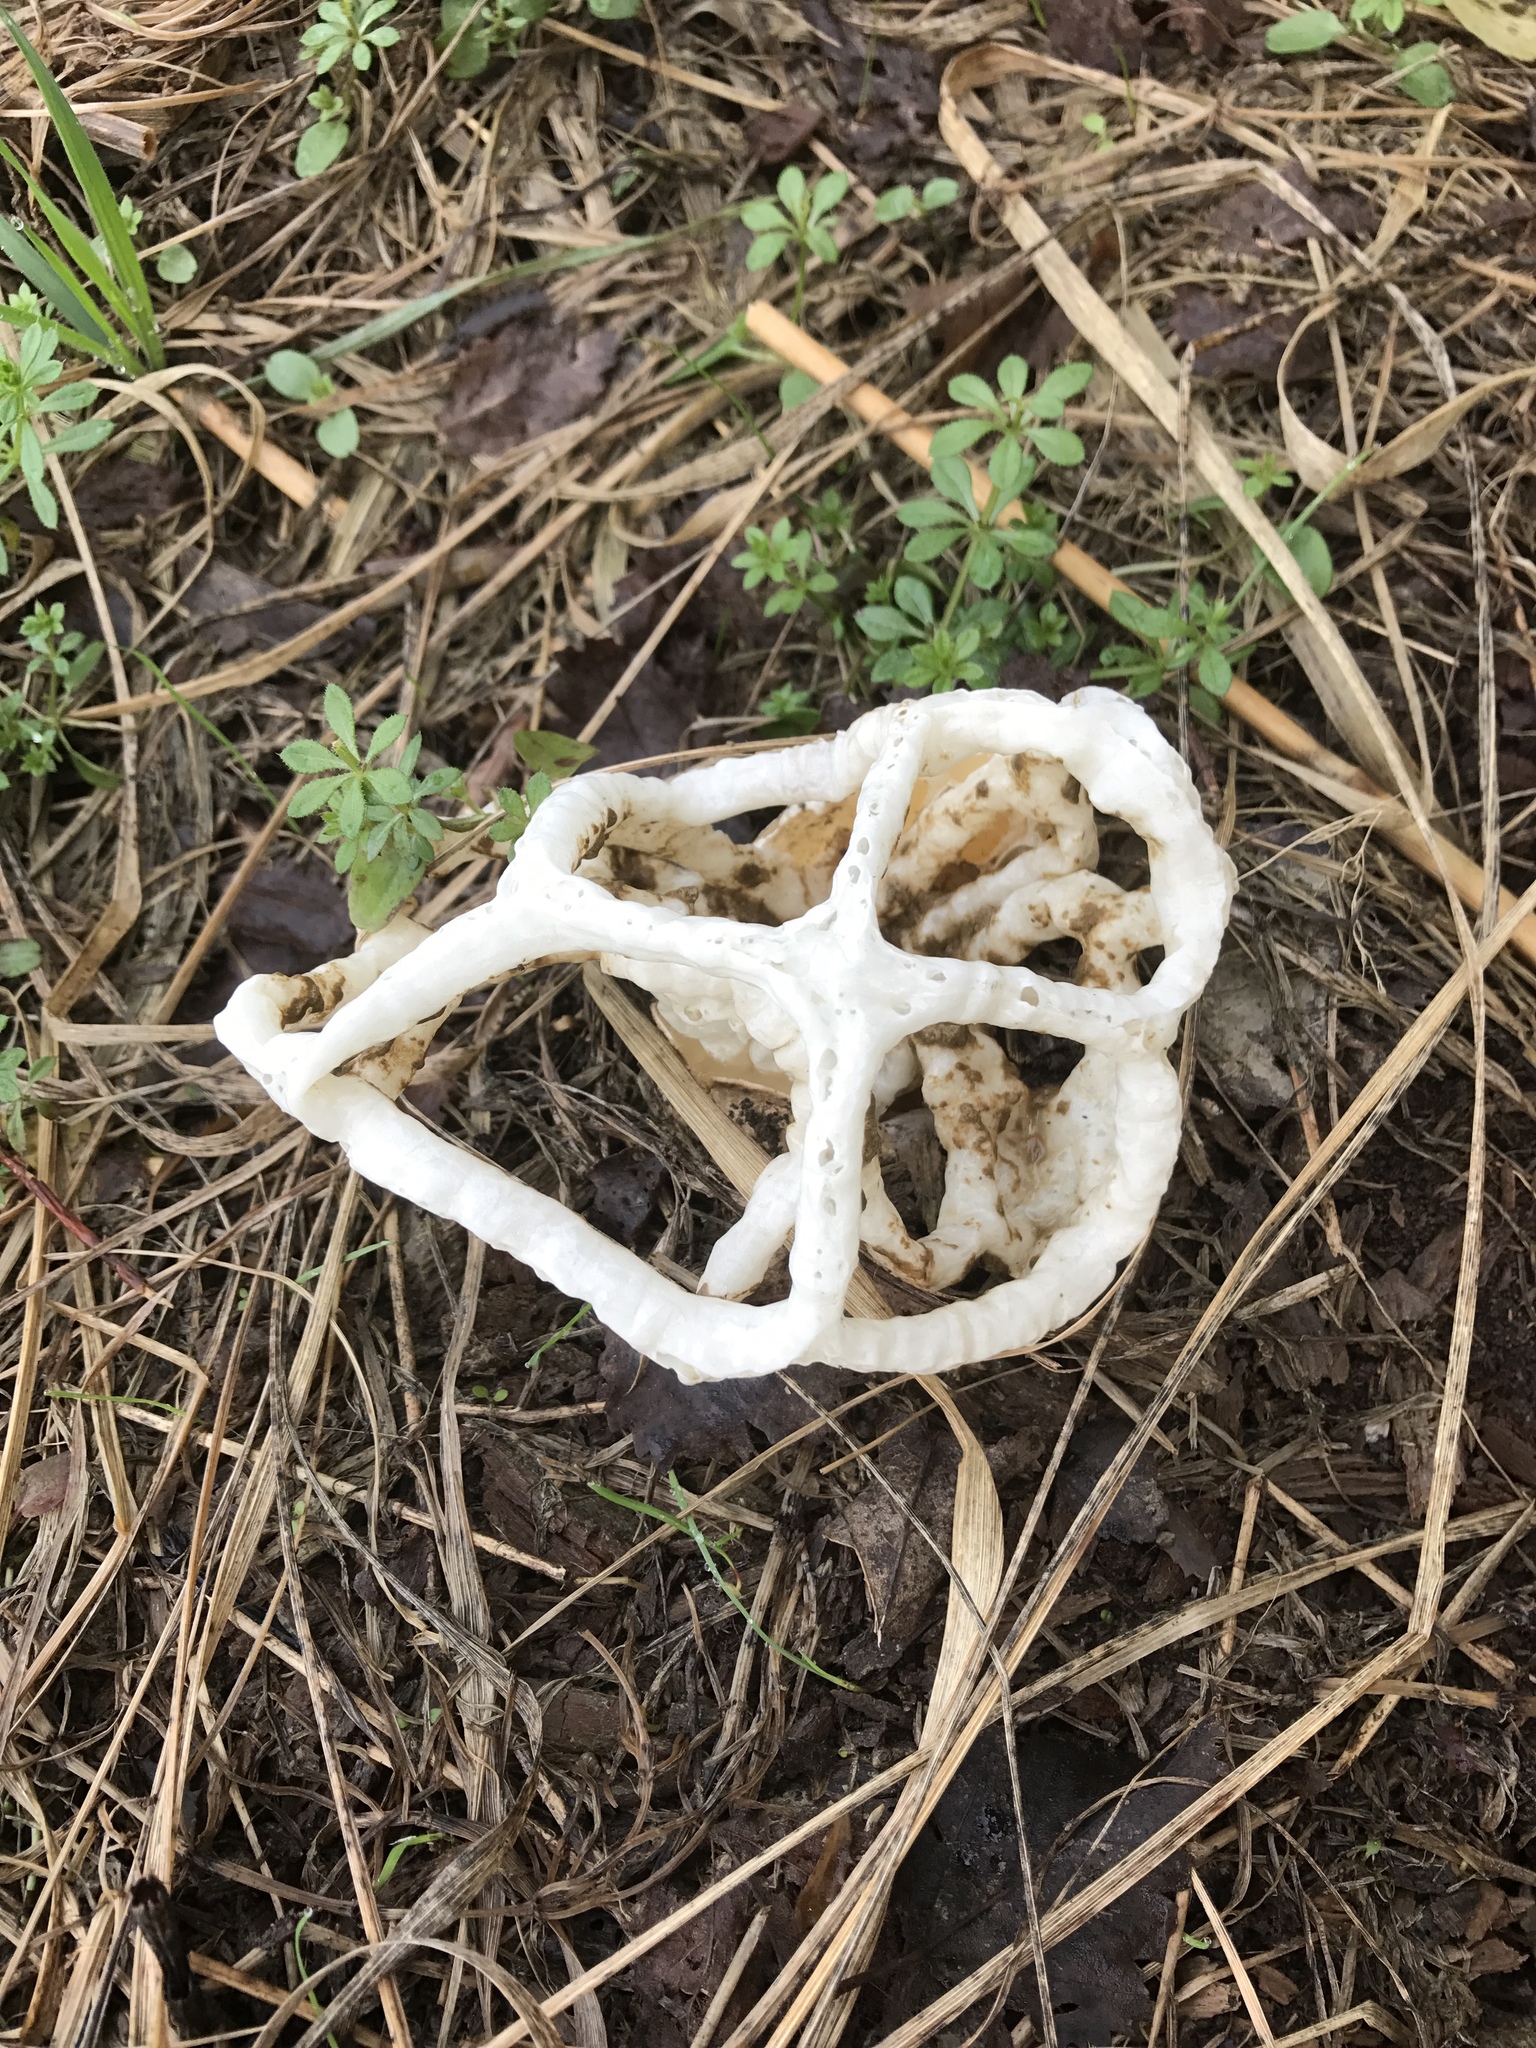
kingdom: Fungi
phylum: Basidiomycota
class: Agaricomycetes
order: Phallales
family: Phallaceae
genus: Ileodictyon
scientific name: Ileodictyon cibarium
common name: Basket fungus
